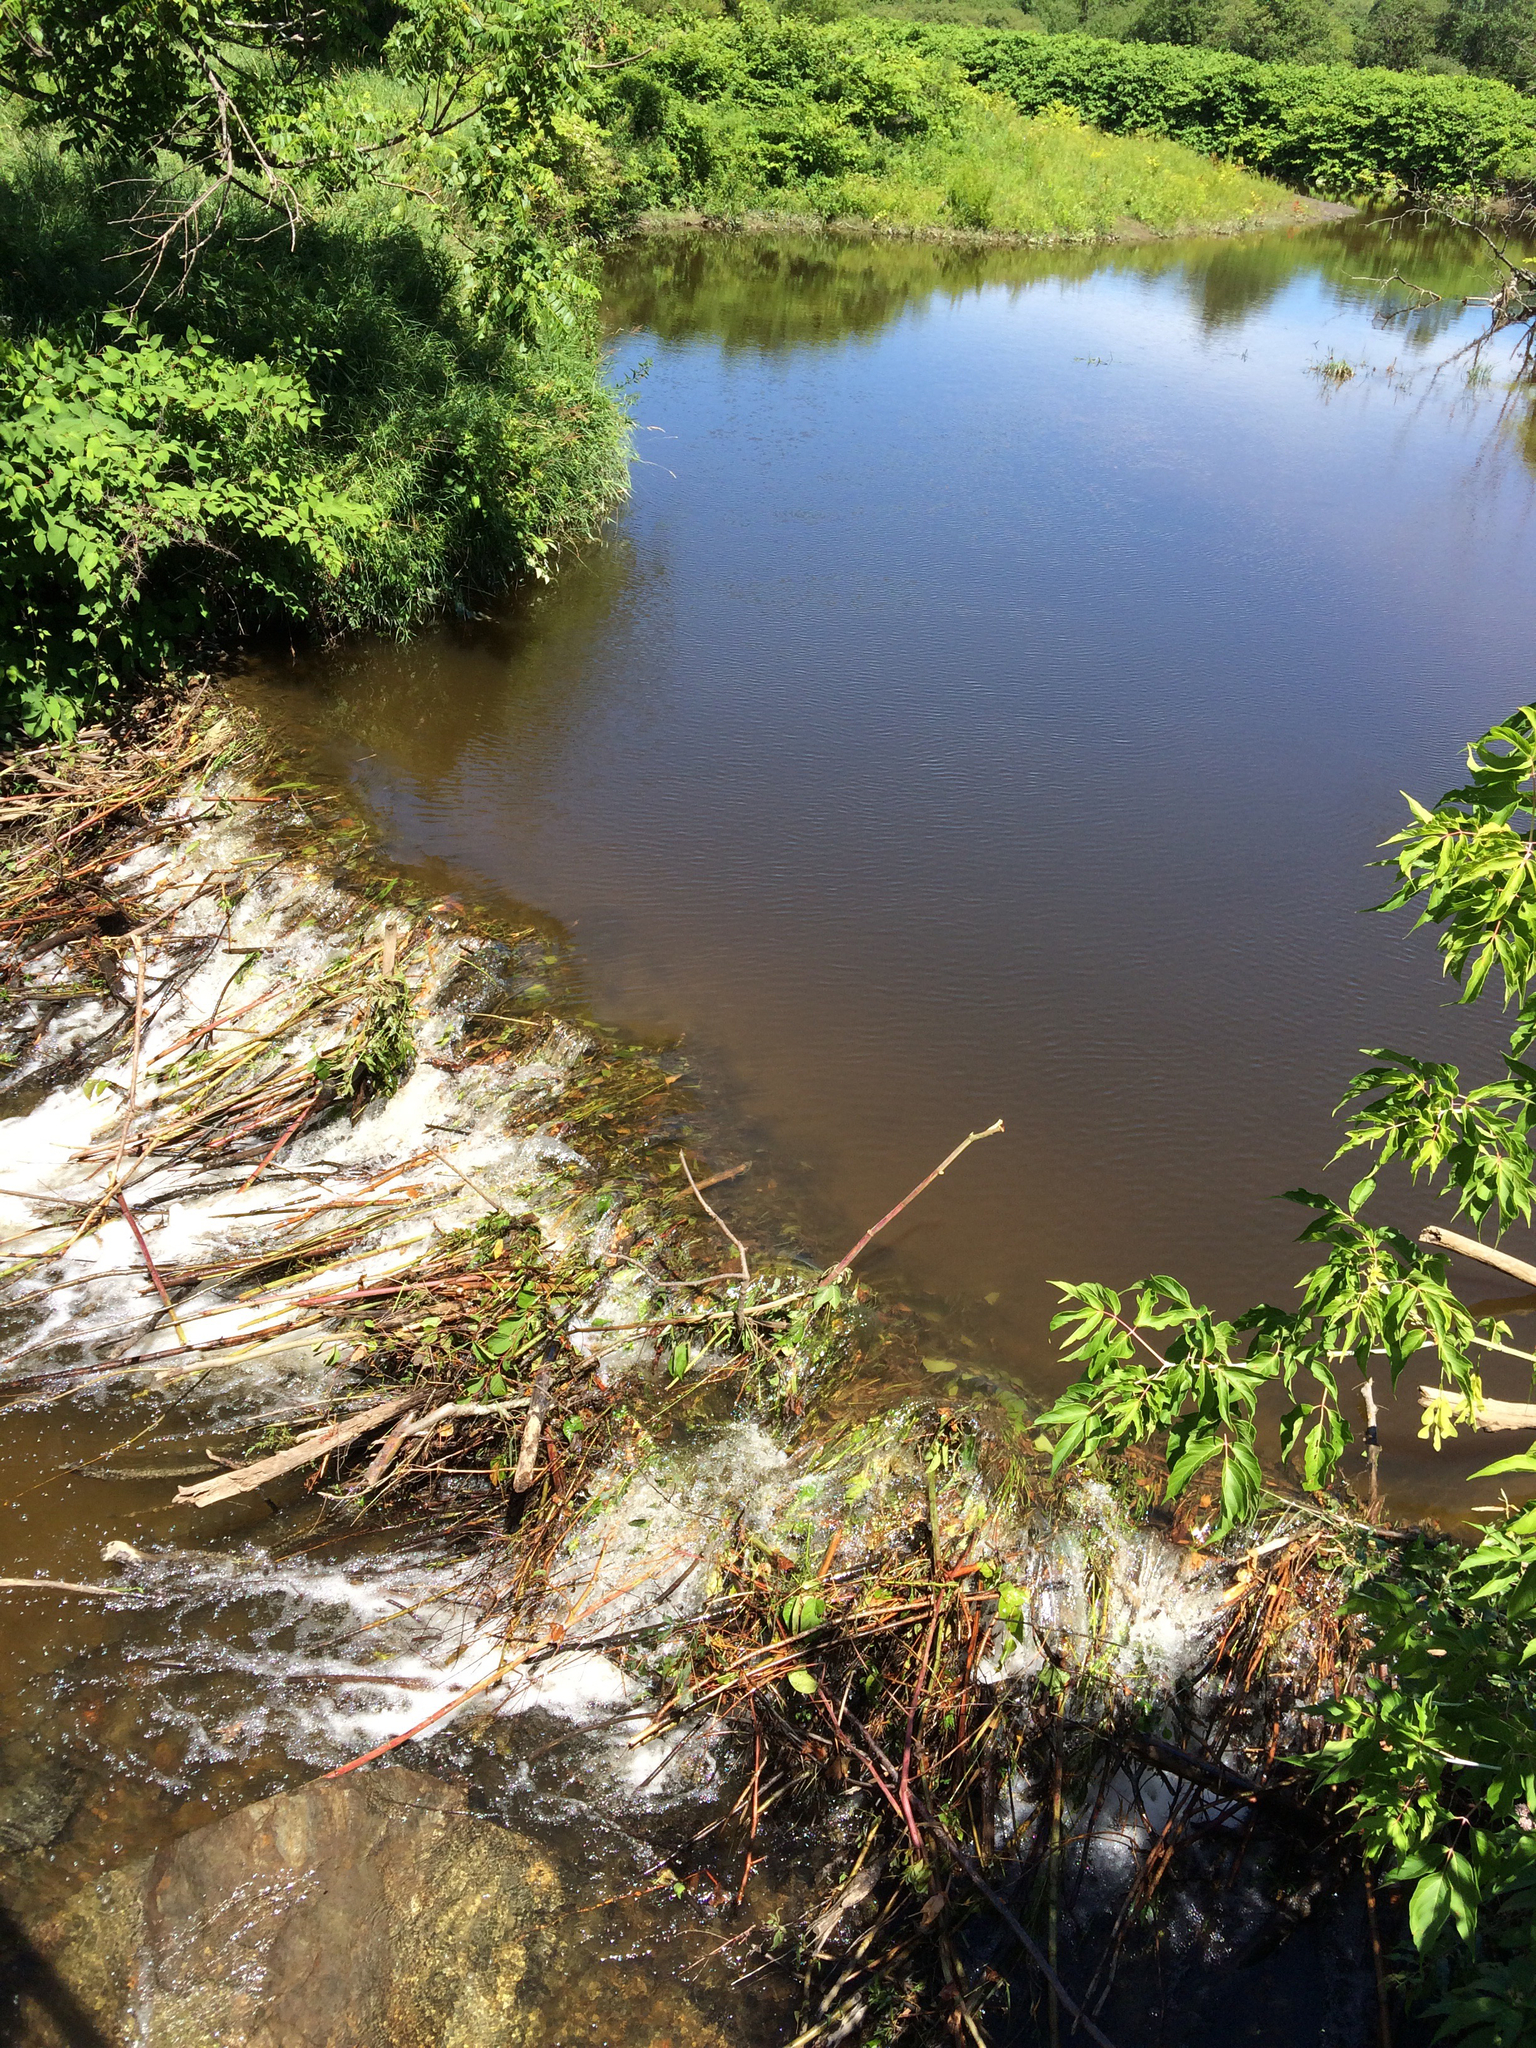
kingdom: Animalia
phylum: Chordata
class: Mammalia
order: Rodentia
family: Castoridae
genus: Castor
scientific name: Castor canadensis
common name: American beaver
